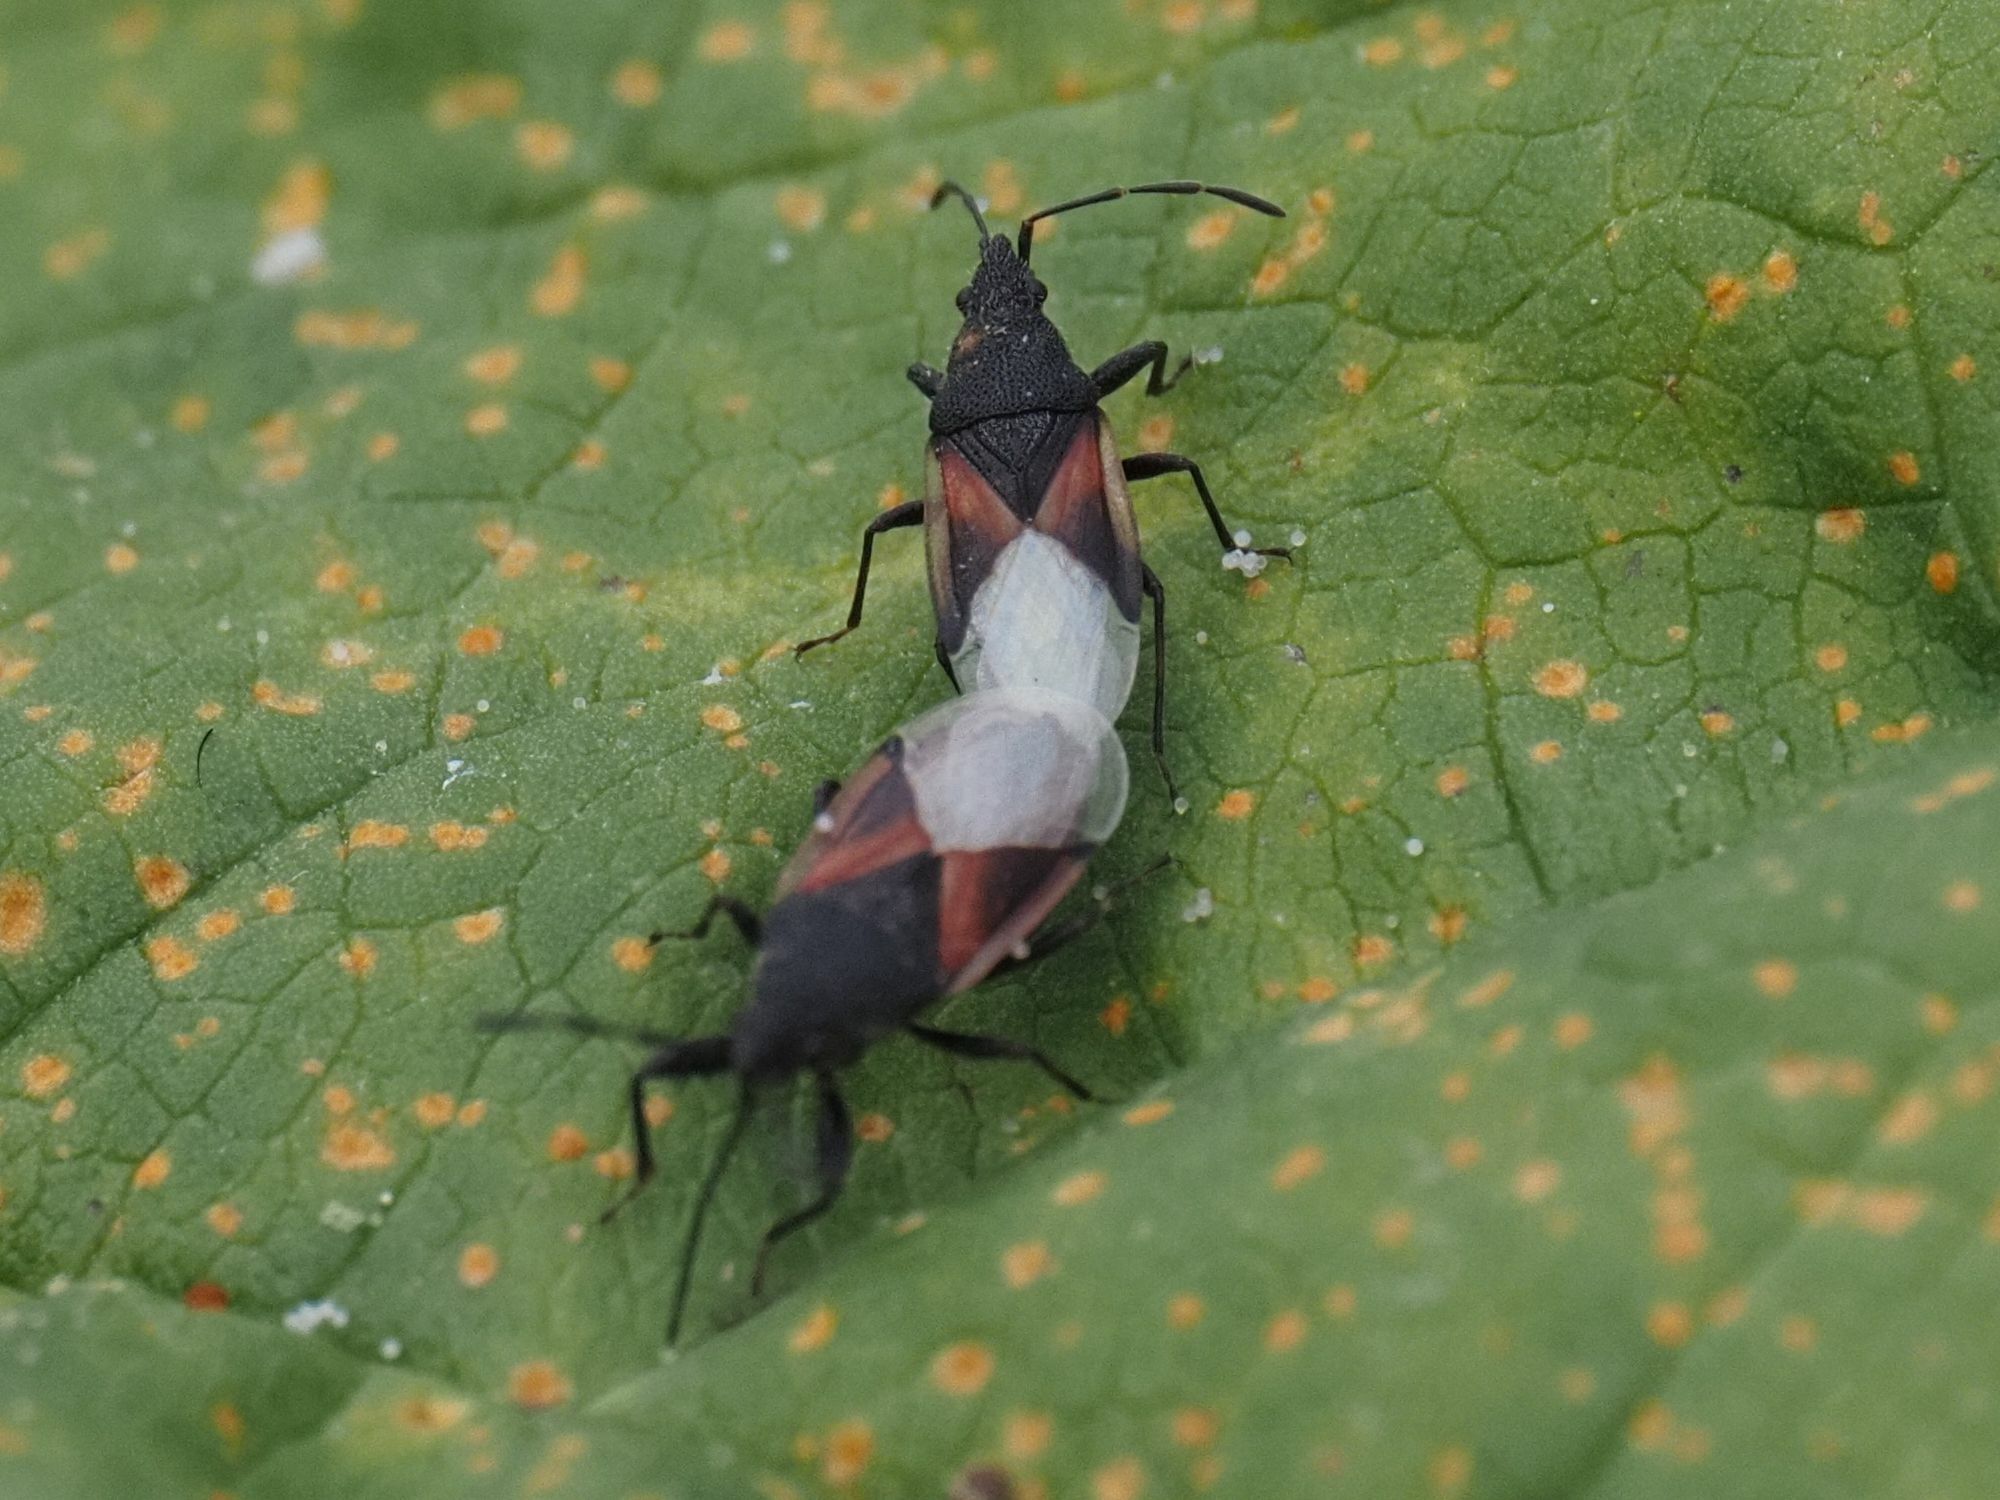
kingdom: Animalia
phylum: Arthropoda
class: Insecta
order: Hemiptera
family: Oxycarenidae
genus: Oxycarenus
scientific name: Oxycarenus lavaterae
